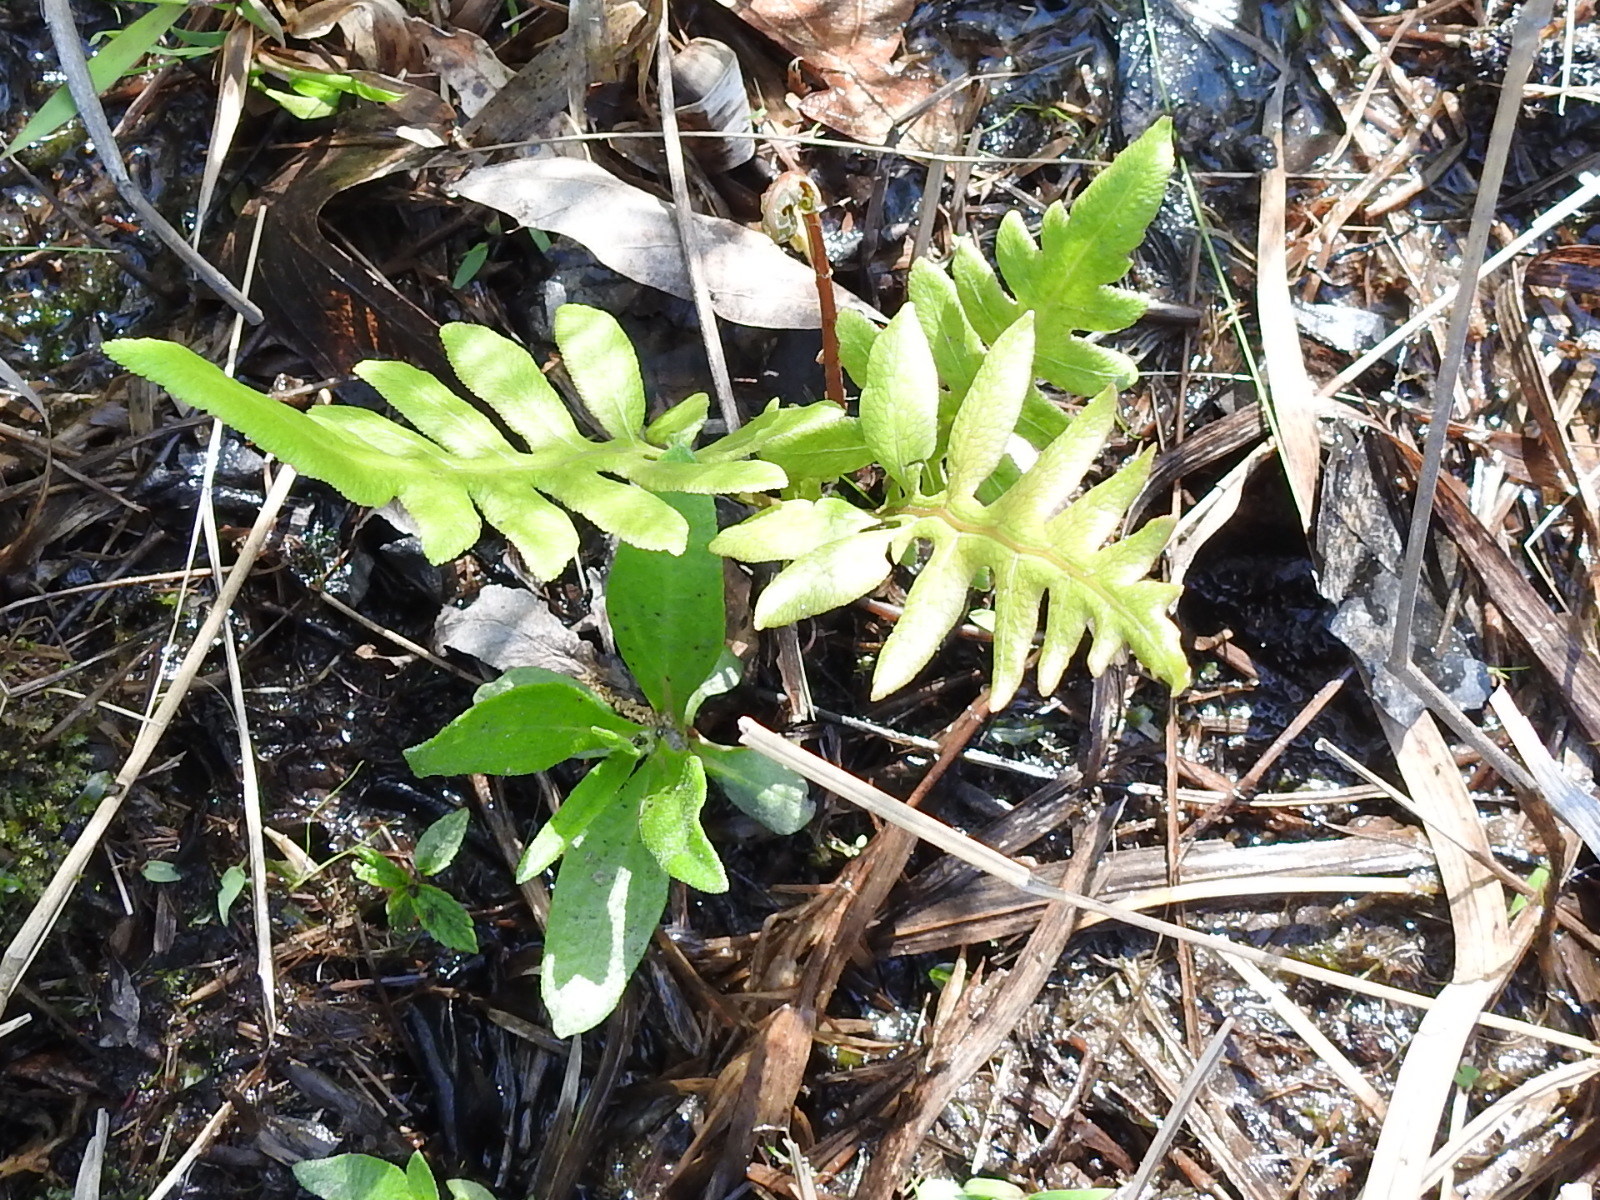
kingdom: Plantae
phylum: Tracheophyta
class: Polypodiopsida
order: Polypodiales
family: Blechnaceae
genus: Lorinseria
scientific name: Lorinseria areolata
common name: Dwarf chain fern
